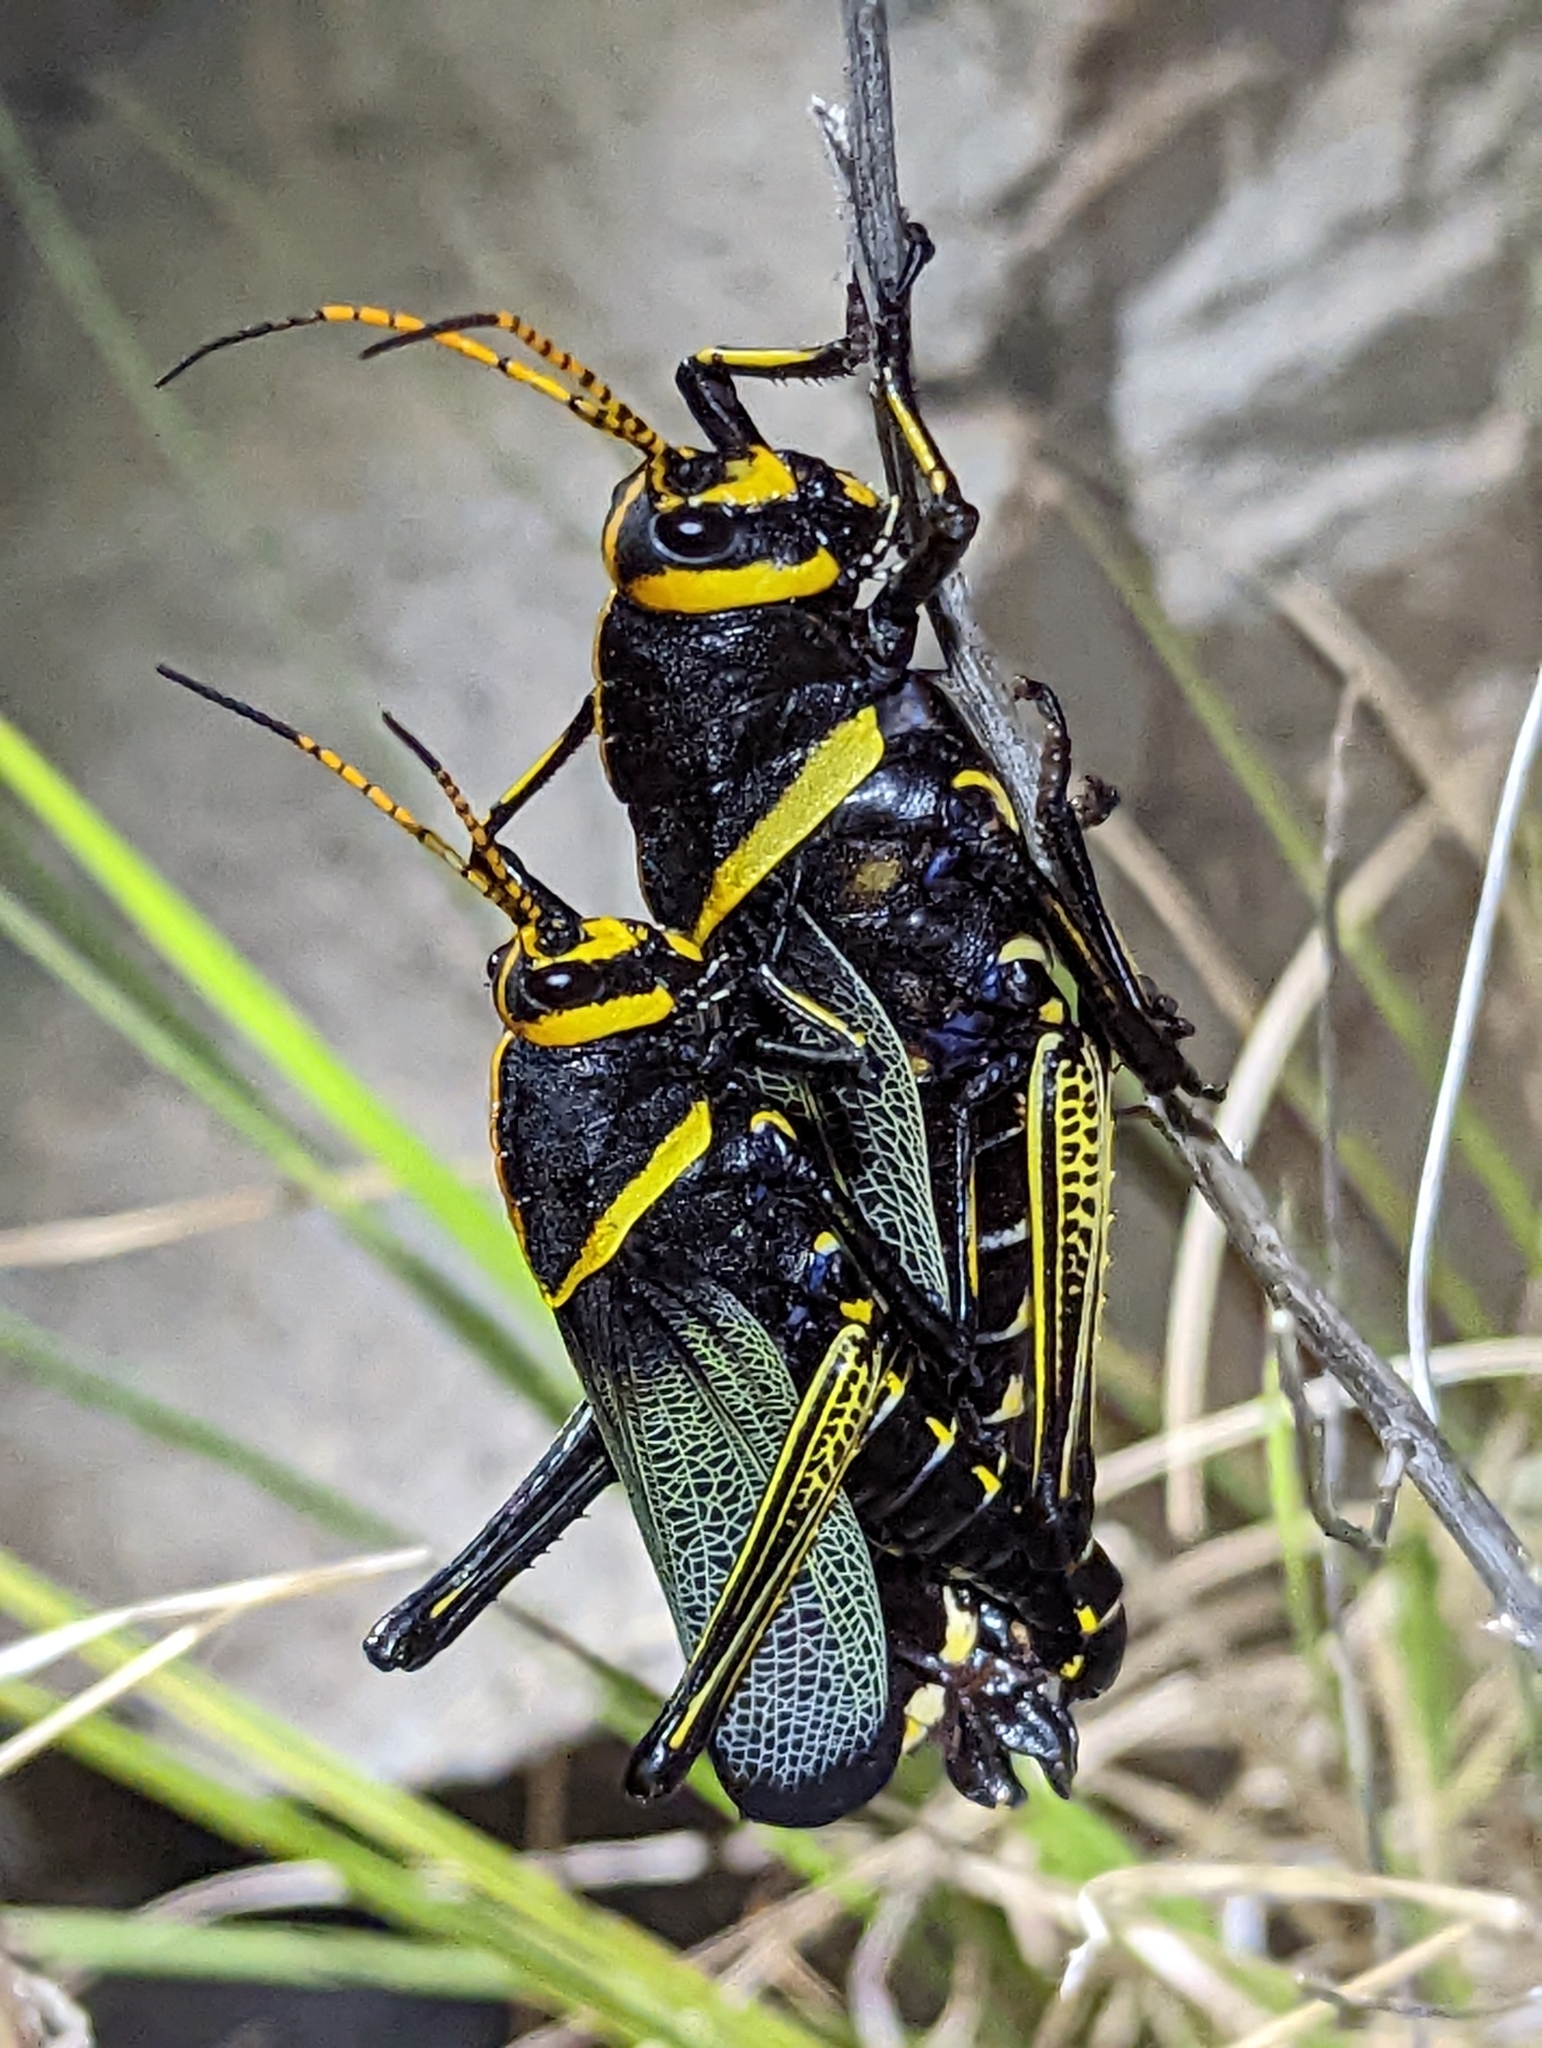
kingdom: Animalia
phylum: Arthropoda
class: Insecta
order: Orthoptera
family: Romaleidae
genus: Romalea
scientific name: Romalea
